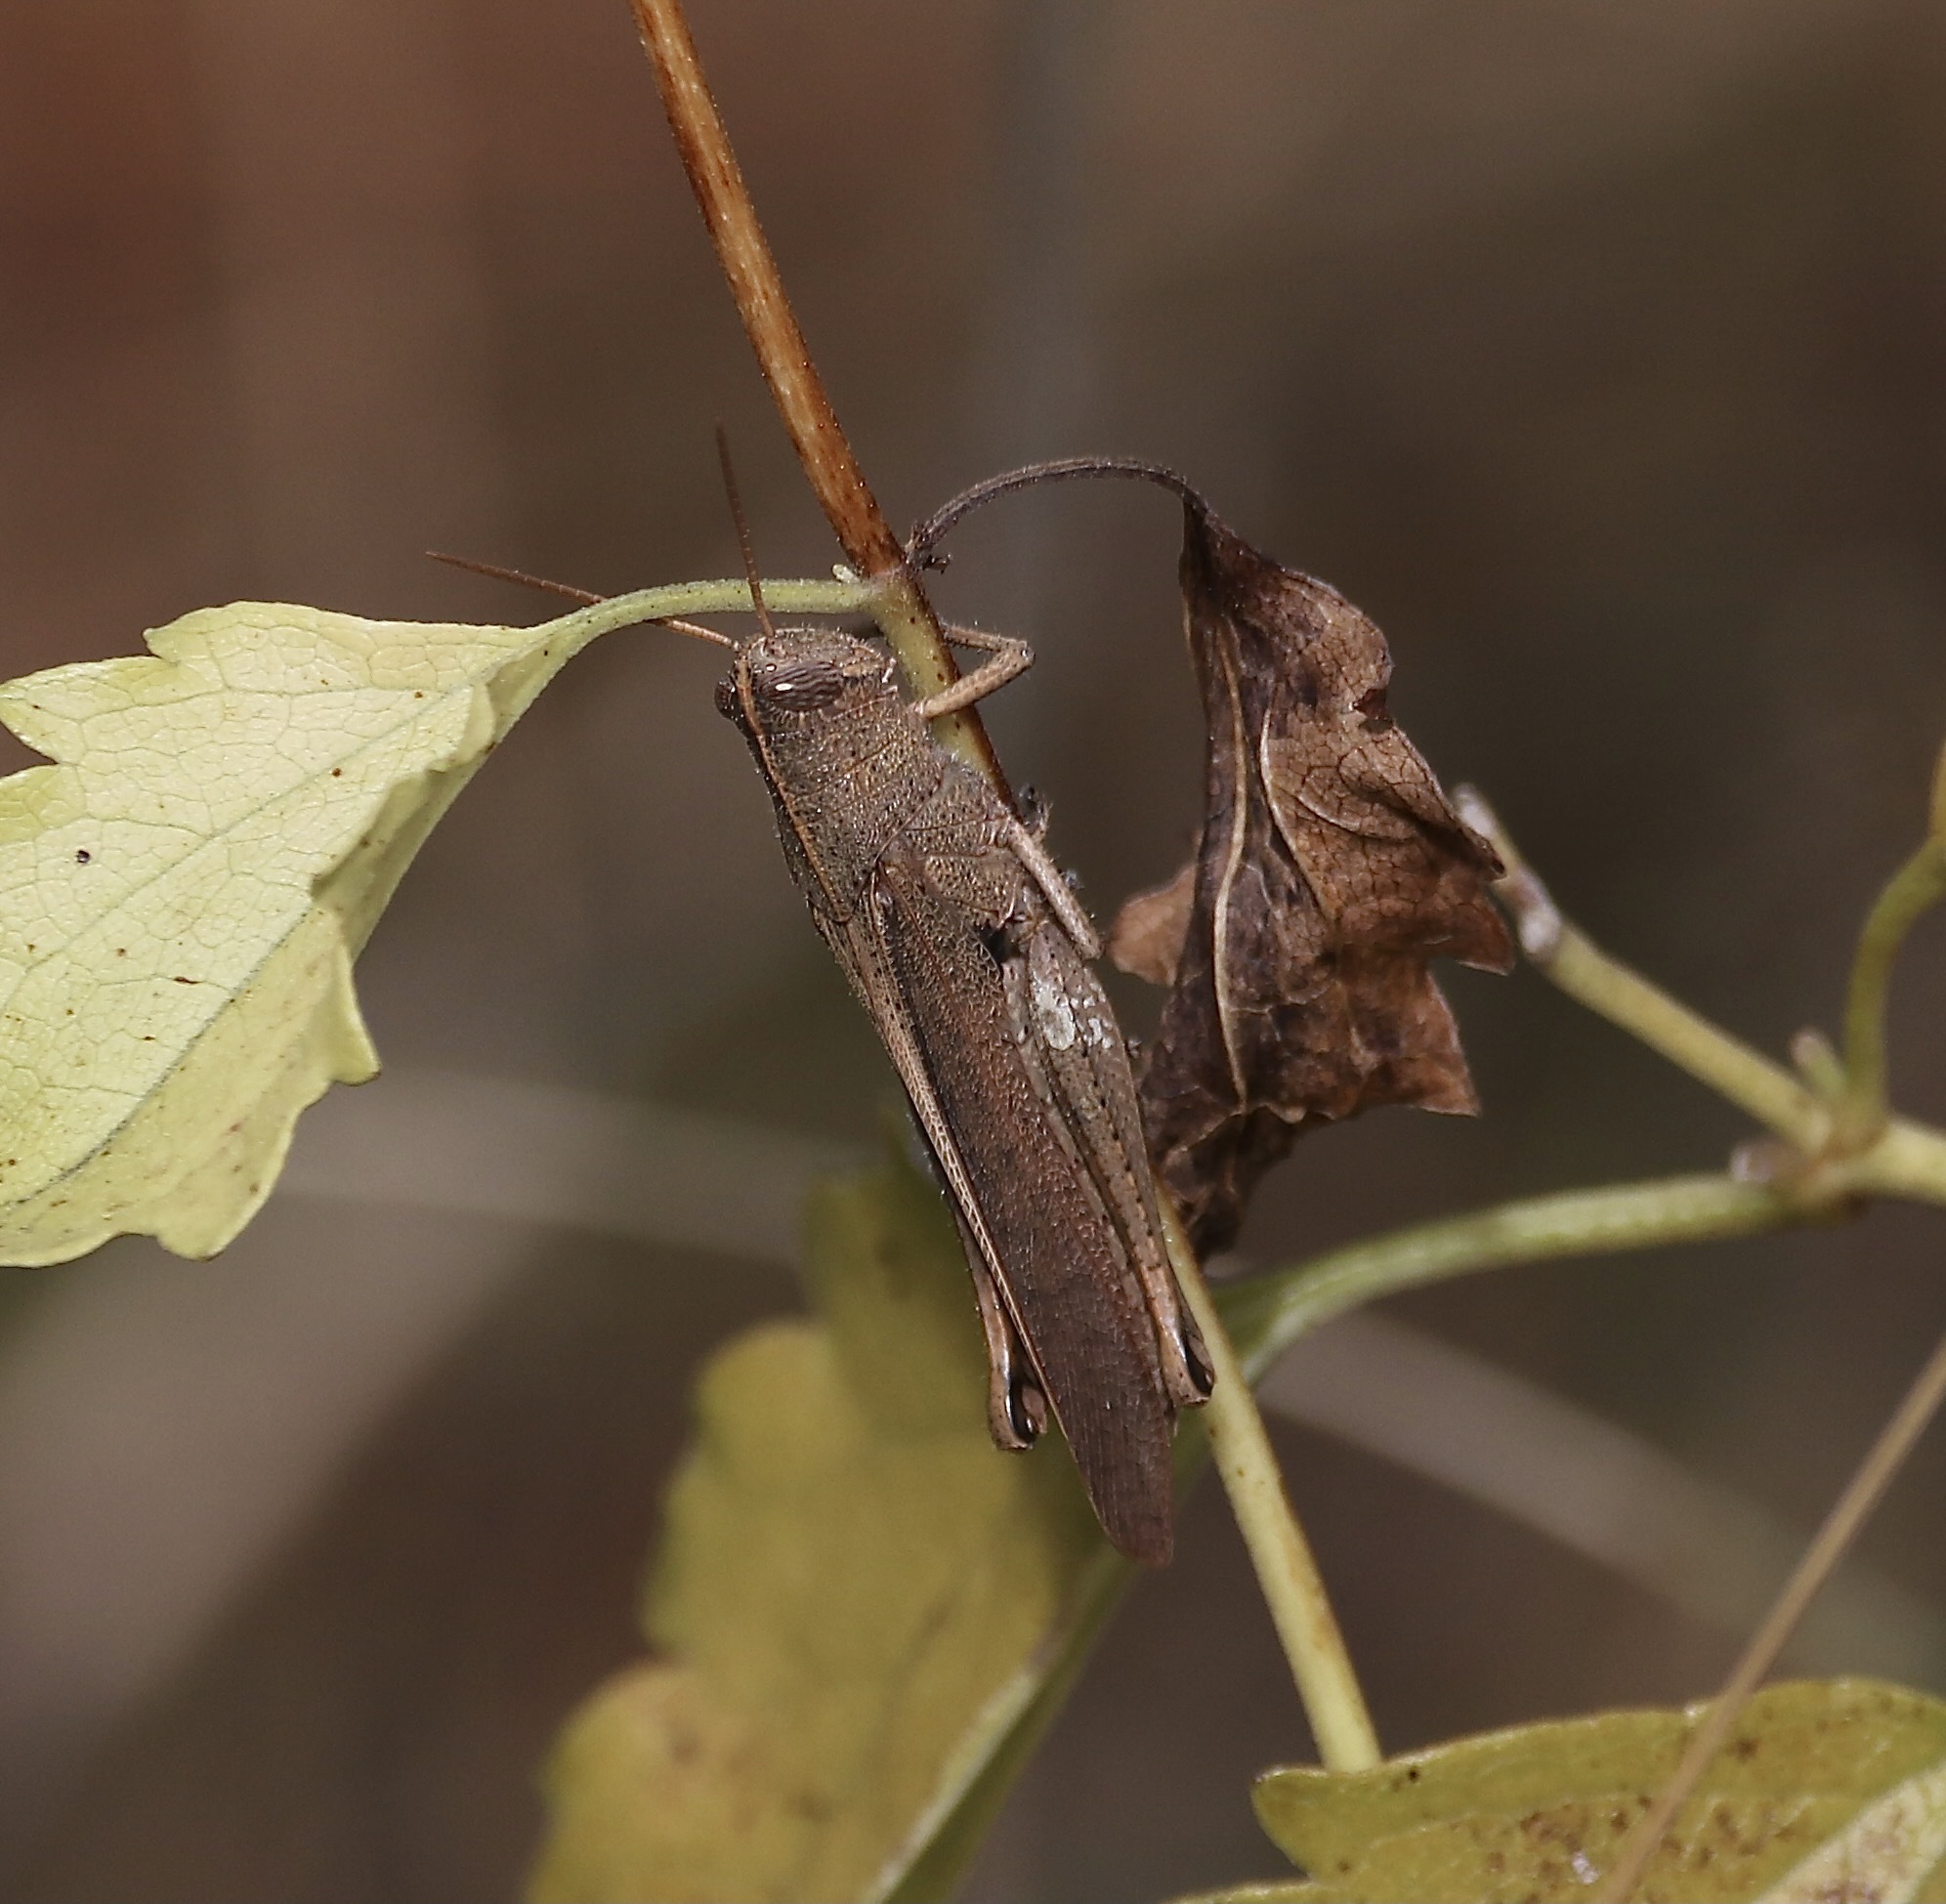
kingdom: Animalia
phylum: Arthropoda
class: Insecta
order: Orthoptera
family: Acrididae
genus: Schistocerca
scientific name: Schistocerca damnifica
